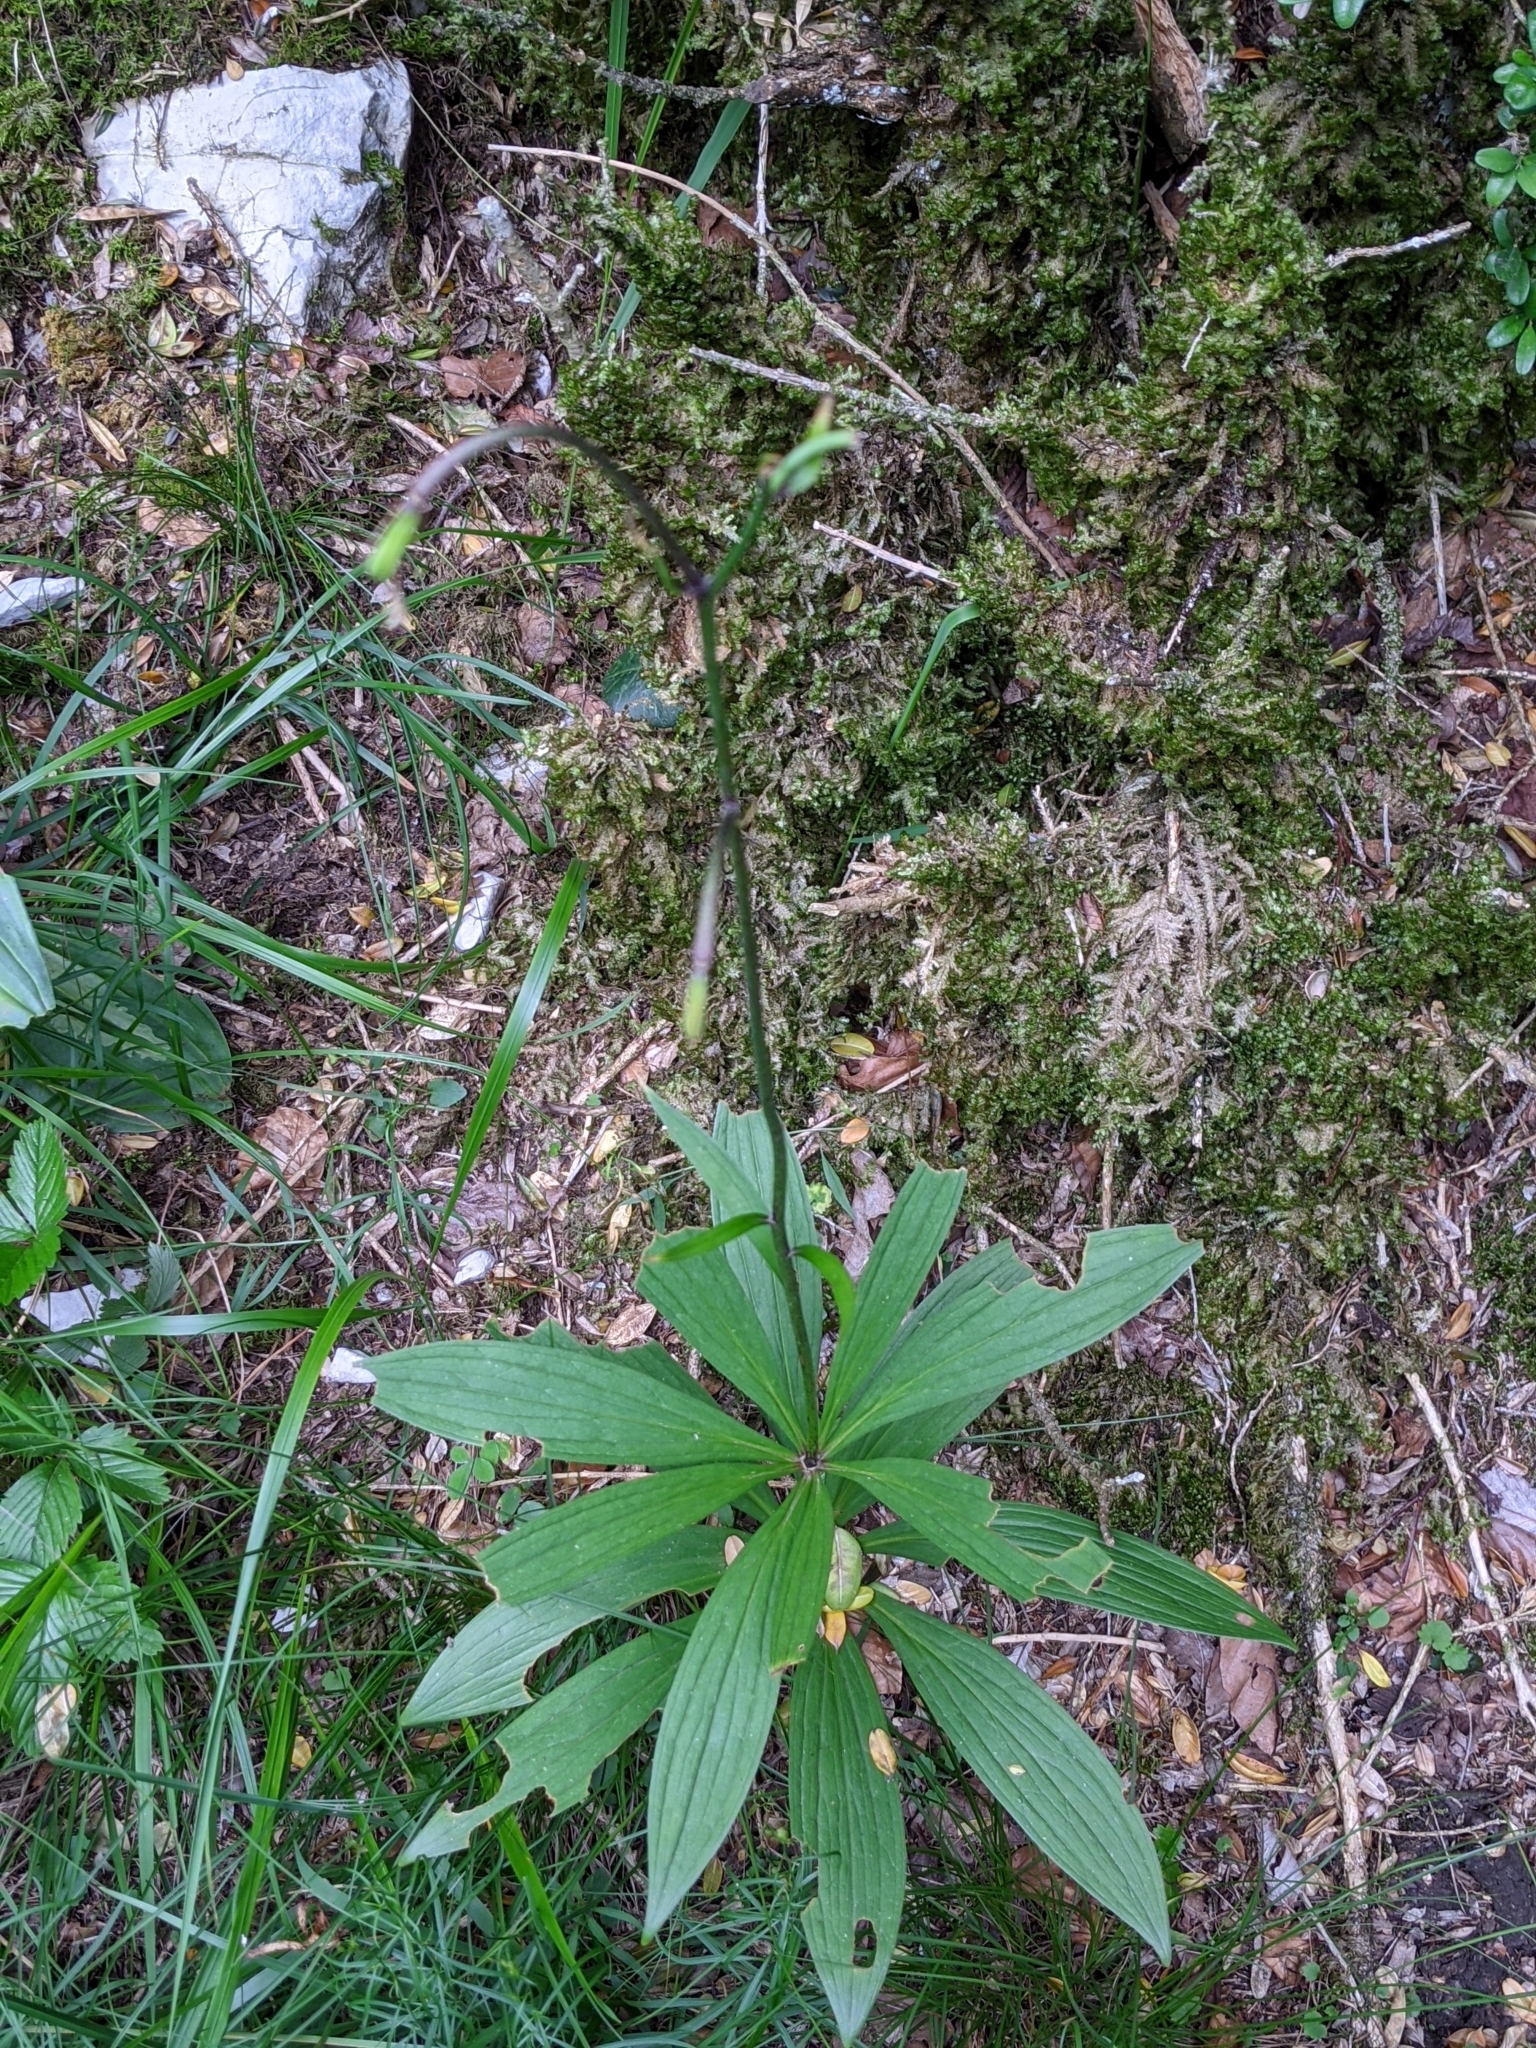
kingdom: Plantae
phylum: Tracheophyta
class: Liliopsida
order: Liliales
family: Liliaceae
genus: Lilium
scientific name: Lilium martagon
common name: Martagon lily
